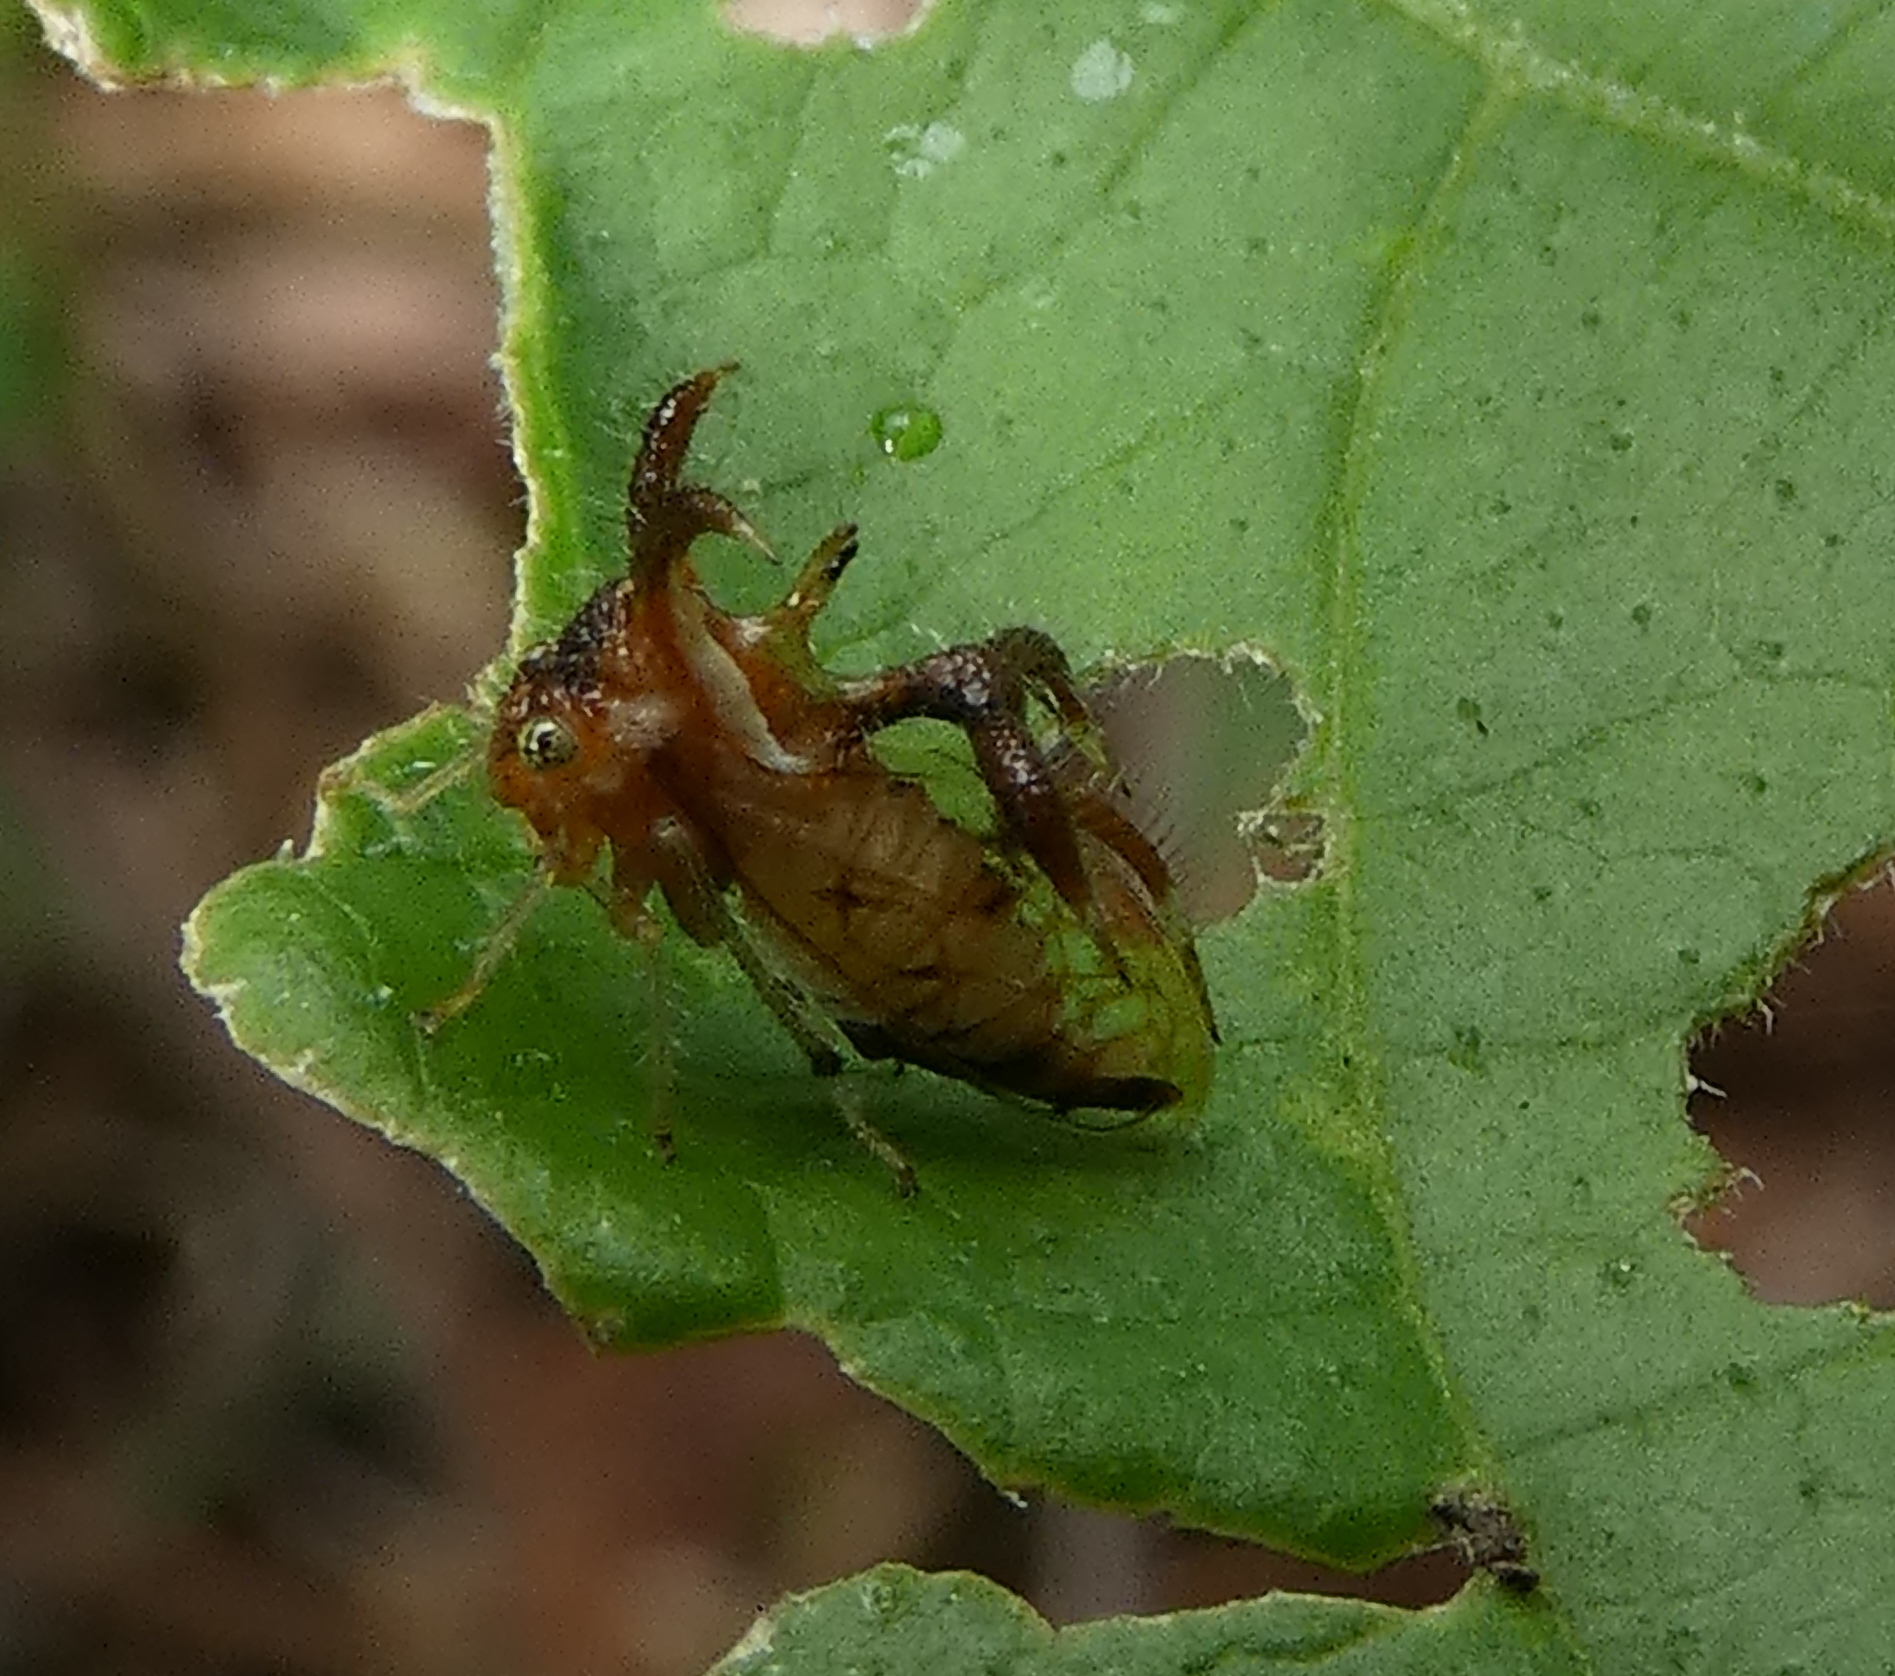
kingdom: Animalia
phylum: Arthropoda
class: Insecta
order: Hemiptera
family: Membracidae
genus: Cyphonia
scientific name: Cyphonia nordestina
